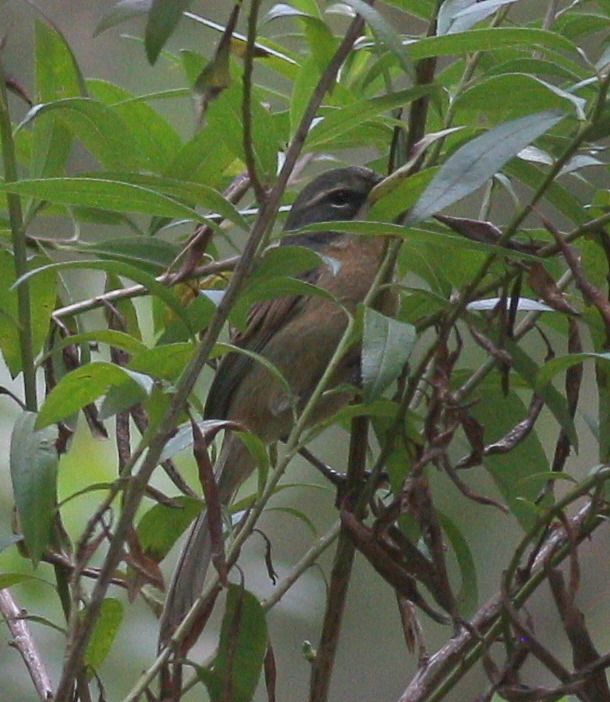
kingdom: Animalia
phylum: Chordata
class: Aves
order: Passeriformes
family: Thraupidae
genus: Donacospiza
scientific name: Donacospiza albifrons
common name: Long-tailed reed finch
